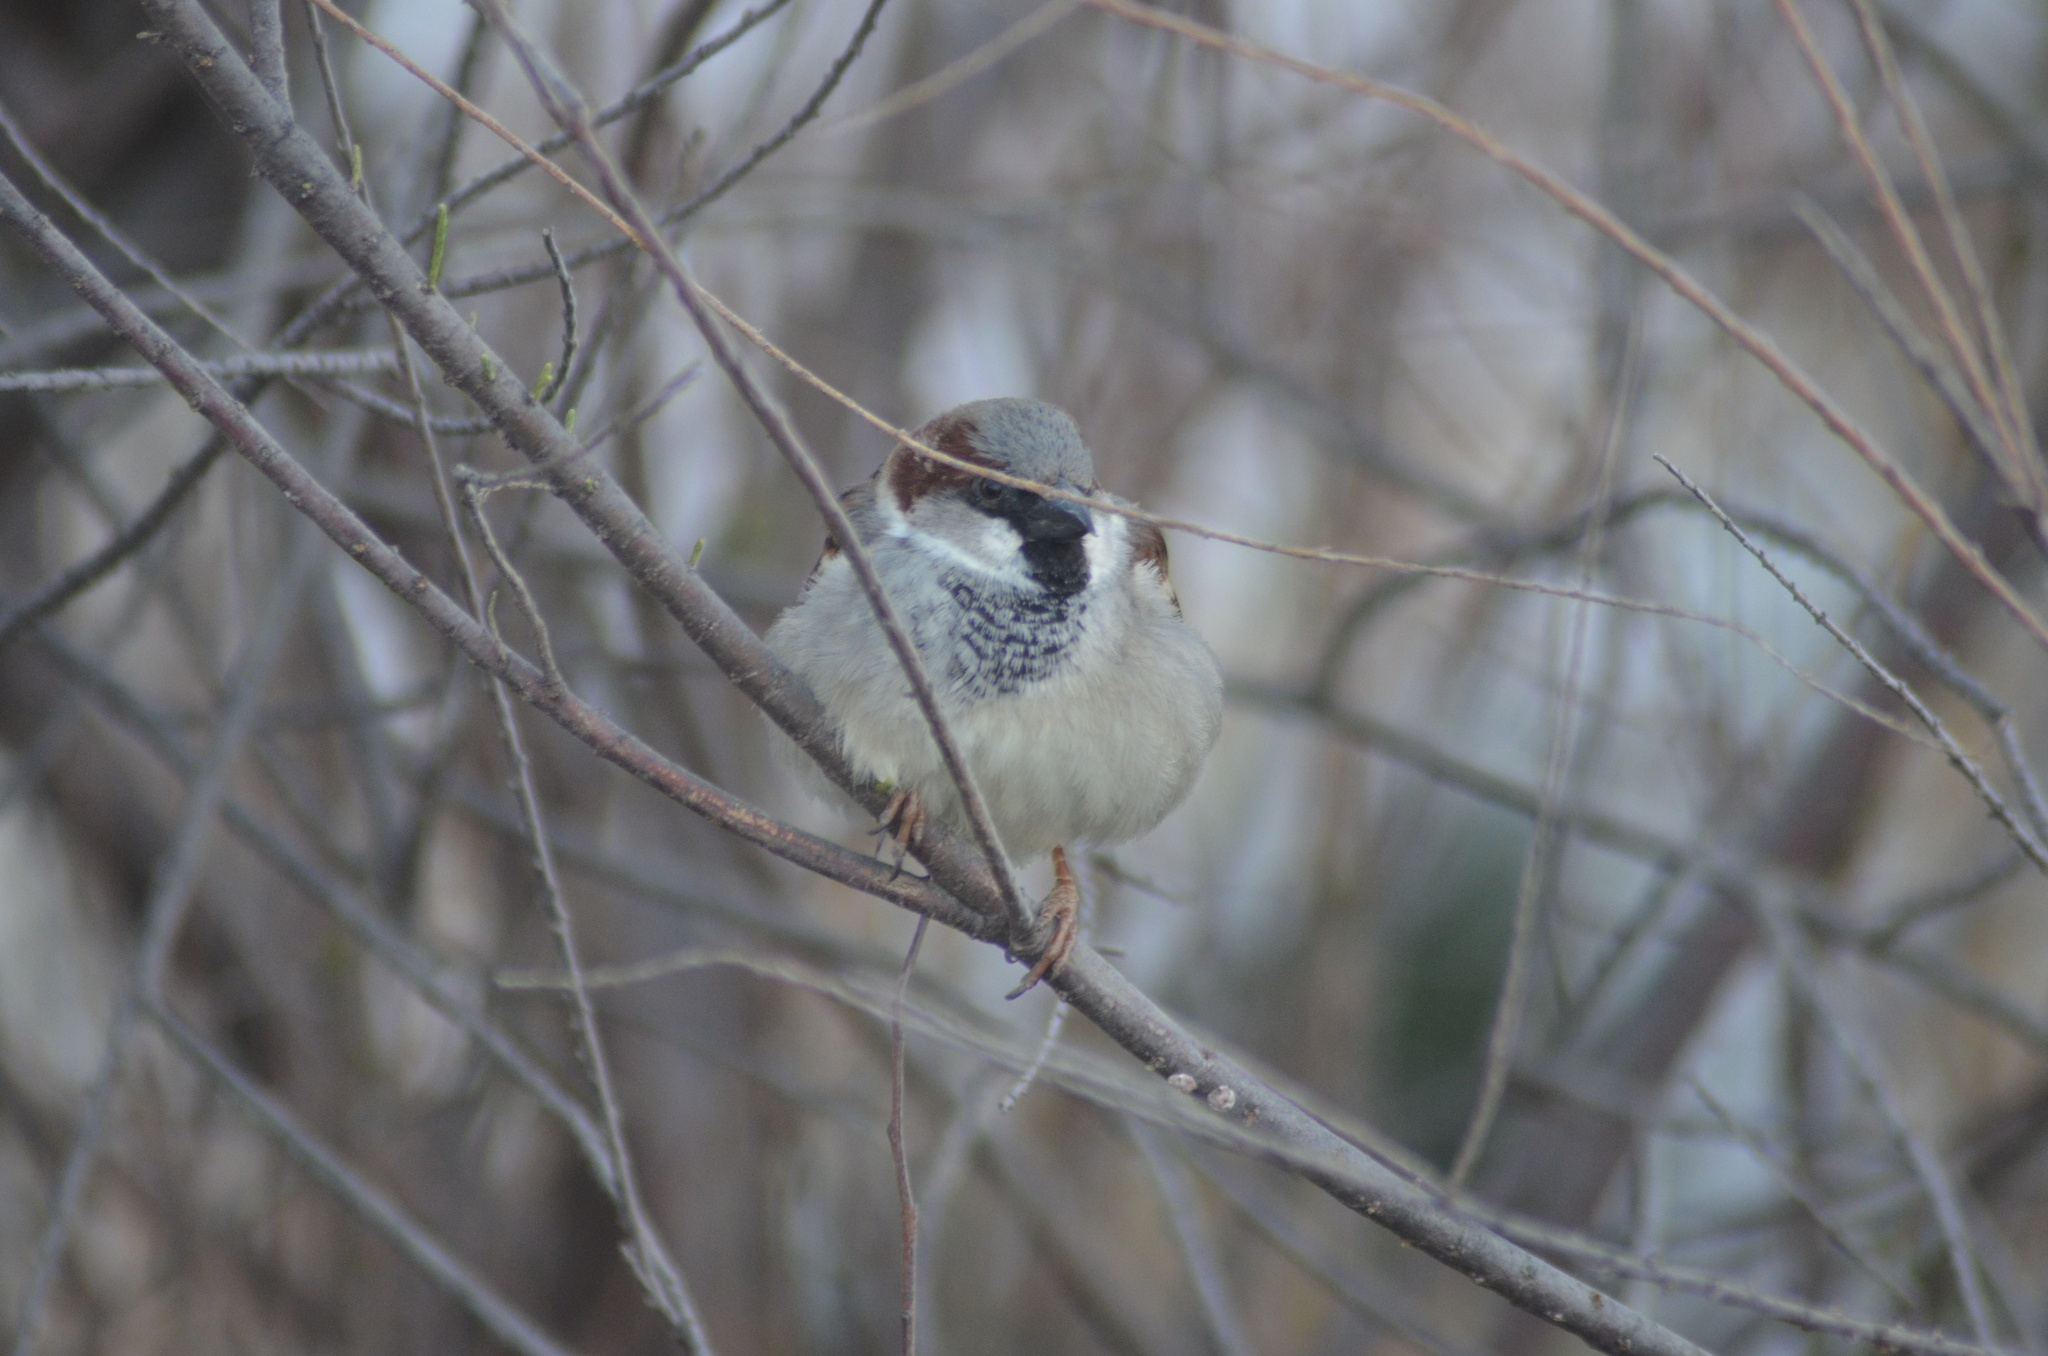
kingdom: Animalia
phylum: Chordata
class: Aves
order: Passeriformes
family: Passeridae
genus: Passer
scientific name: Passer domesticus
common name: House sparrow
